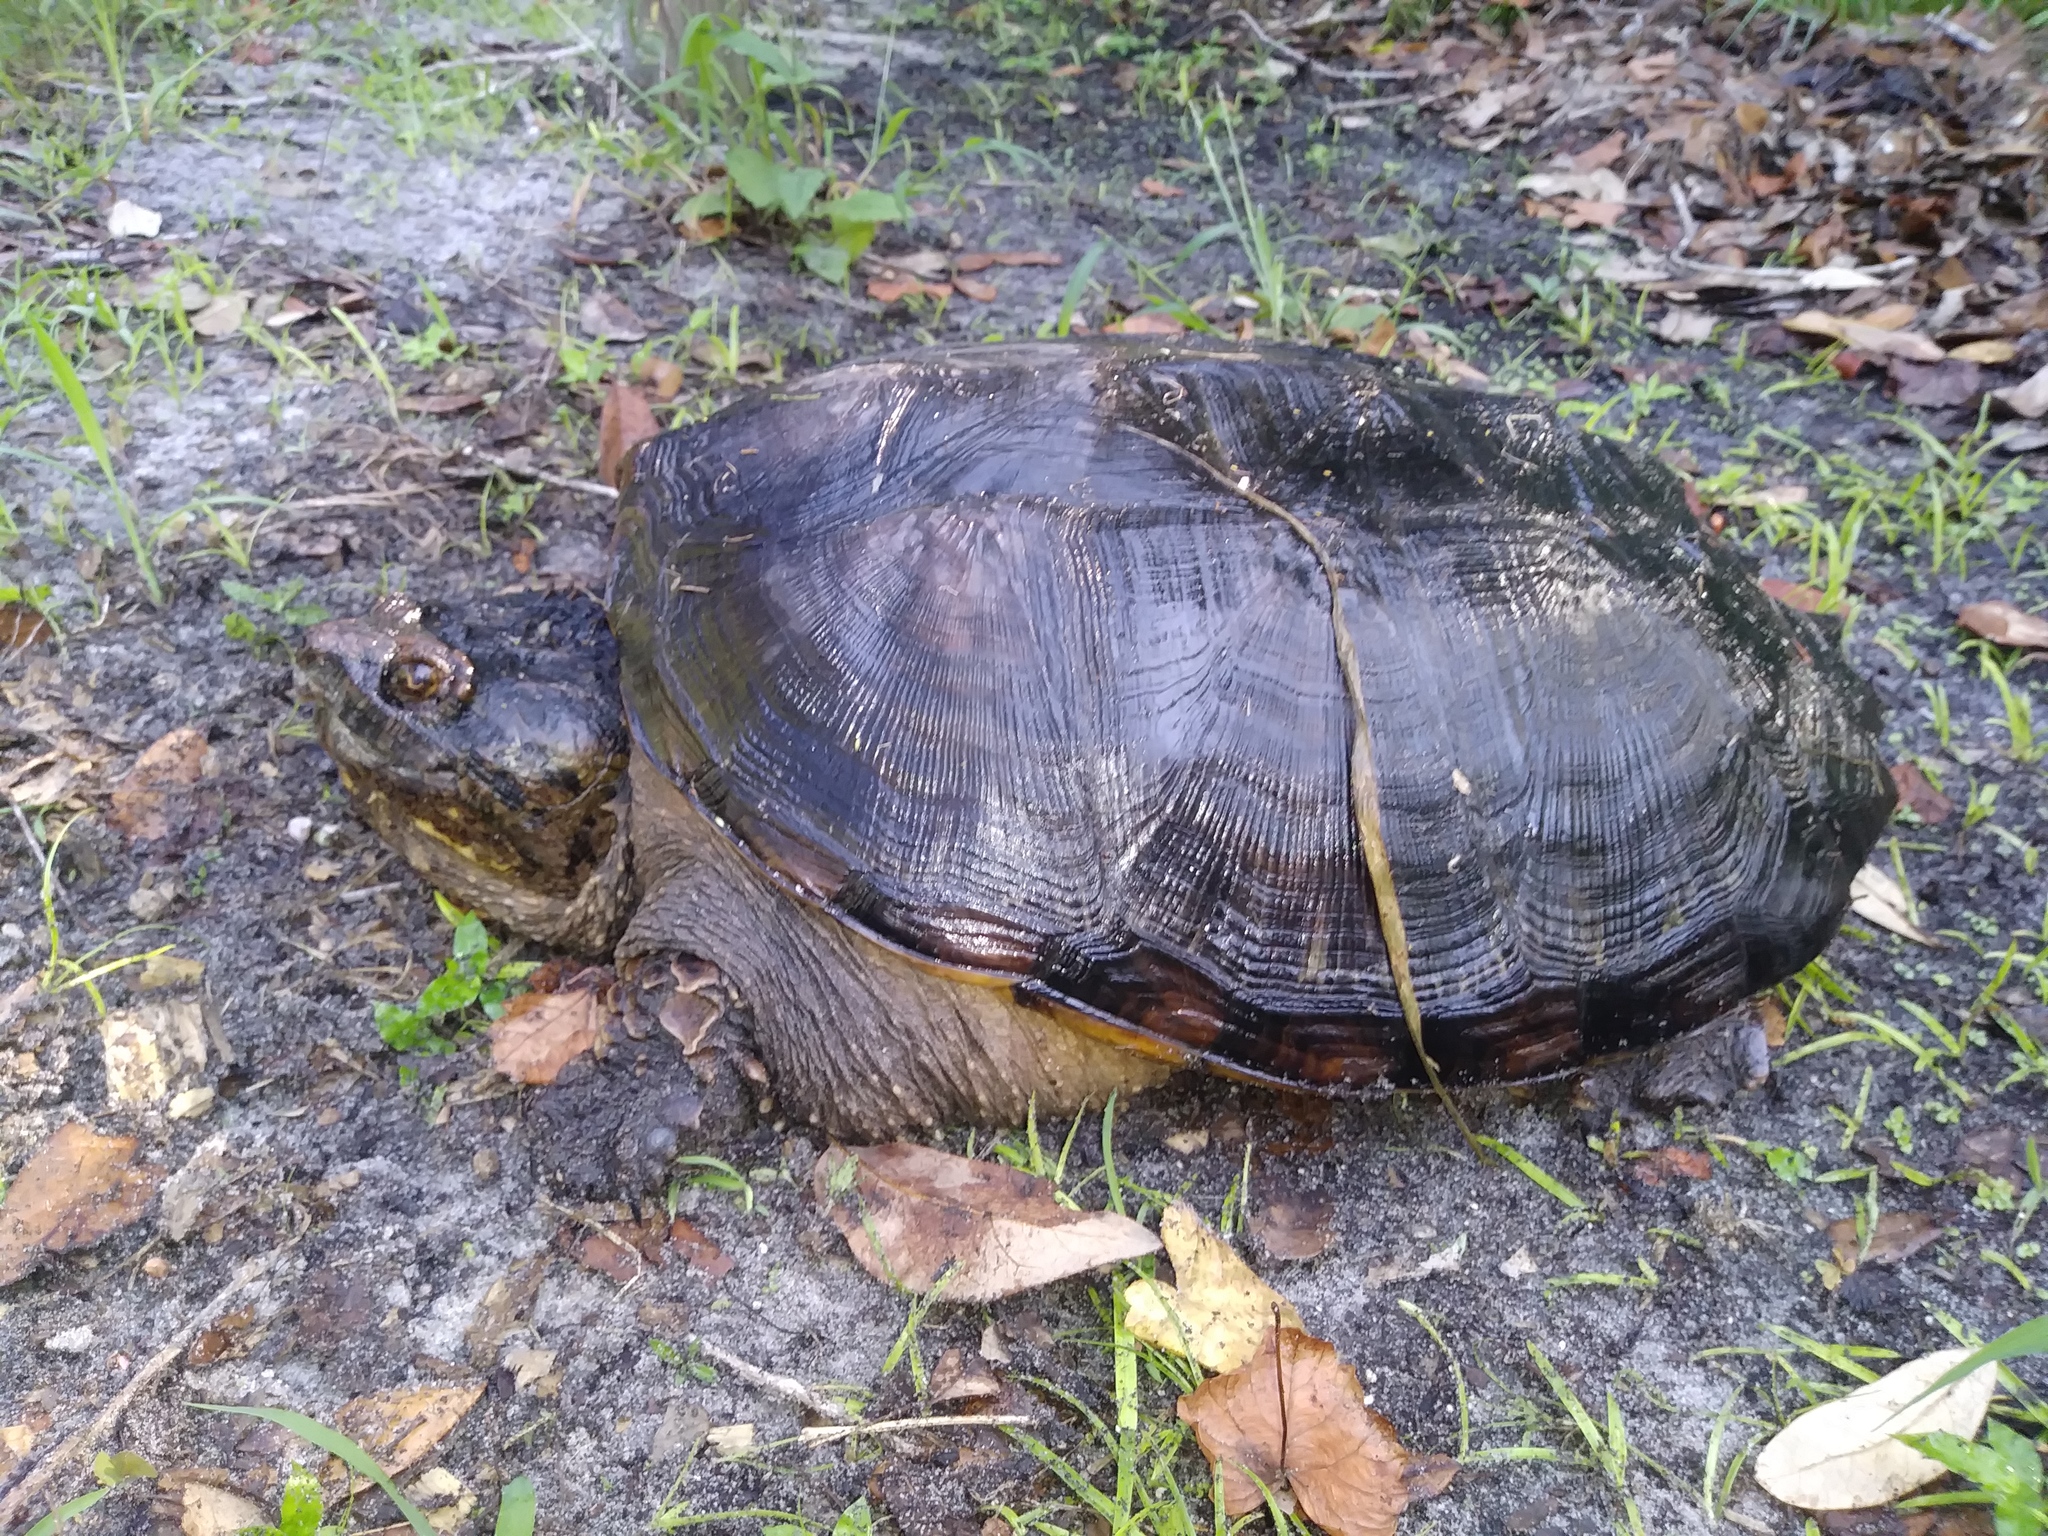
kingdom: Animalia
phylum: Chordata
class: Testudines
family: Chelydridae
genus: Chelydra
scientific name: Chelydra serpentina
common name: Common snapping turtle
